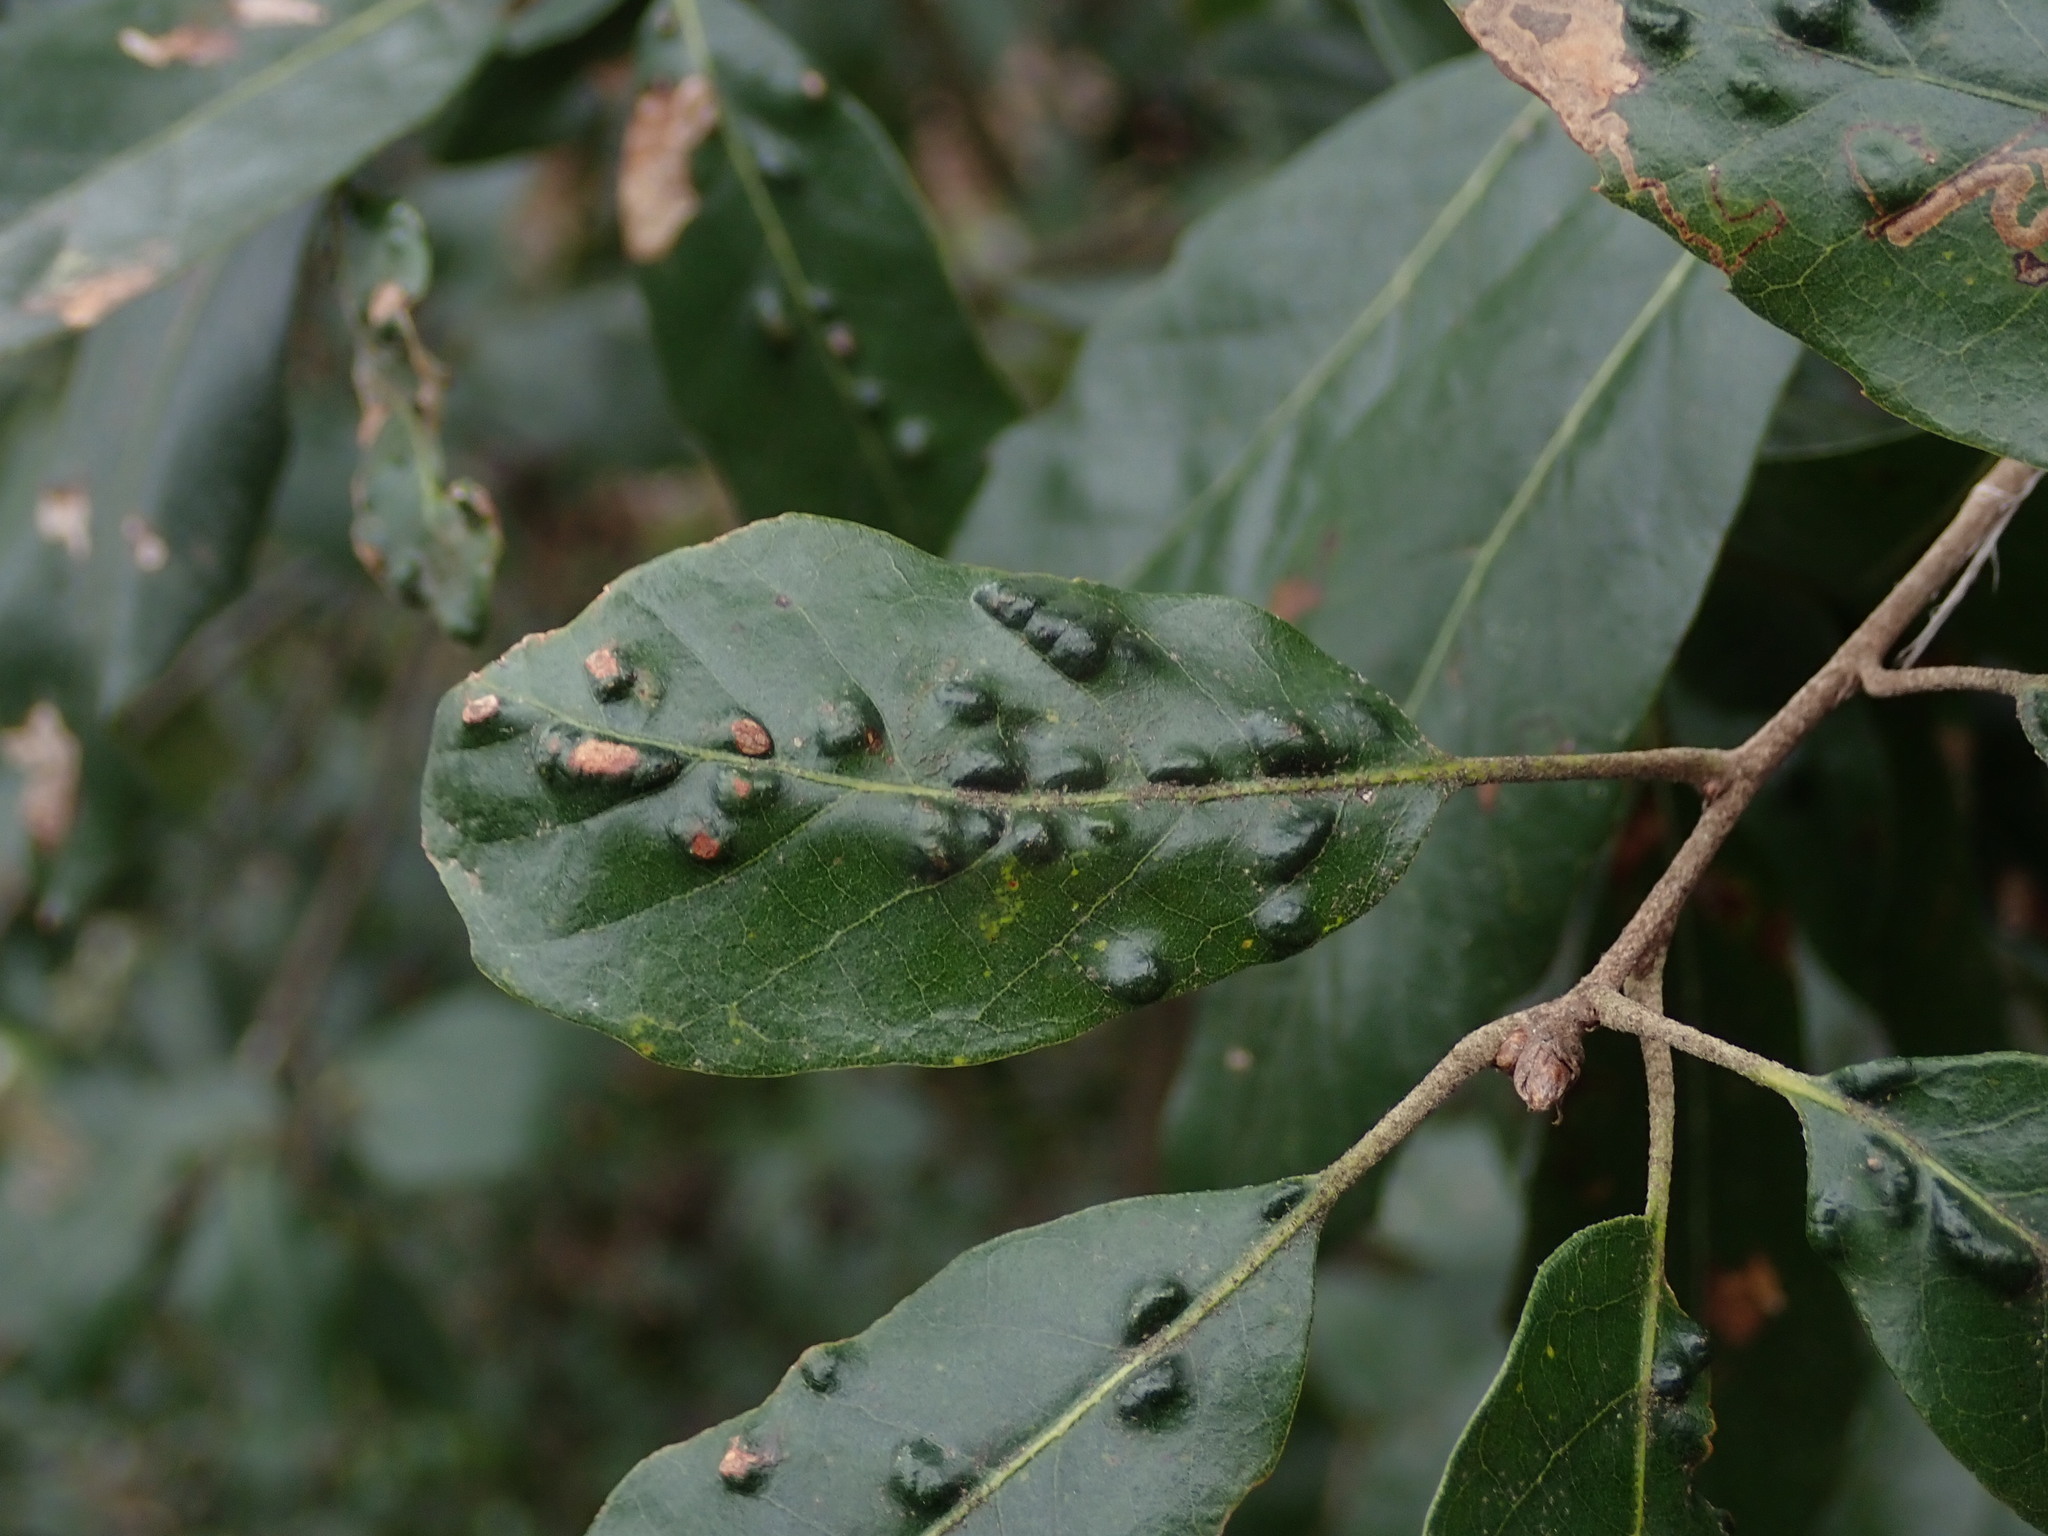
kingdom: Animalia
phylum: Arthropoda
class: Arachnida
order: Trombidiformes
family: Eriophyidae
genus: Aceria
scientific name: Aceria ilicis
